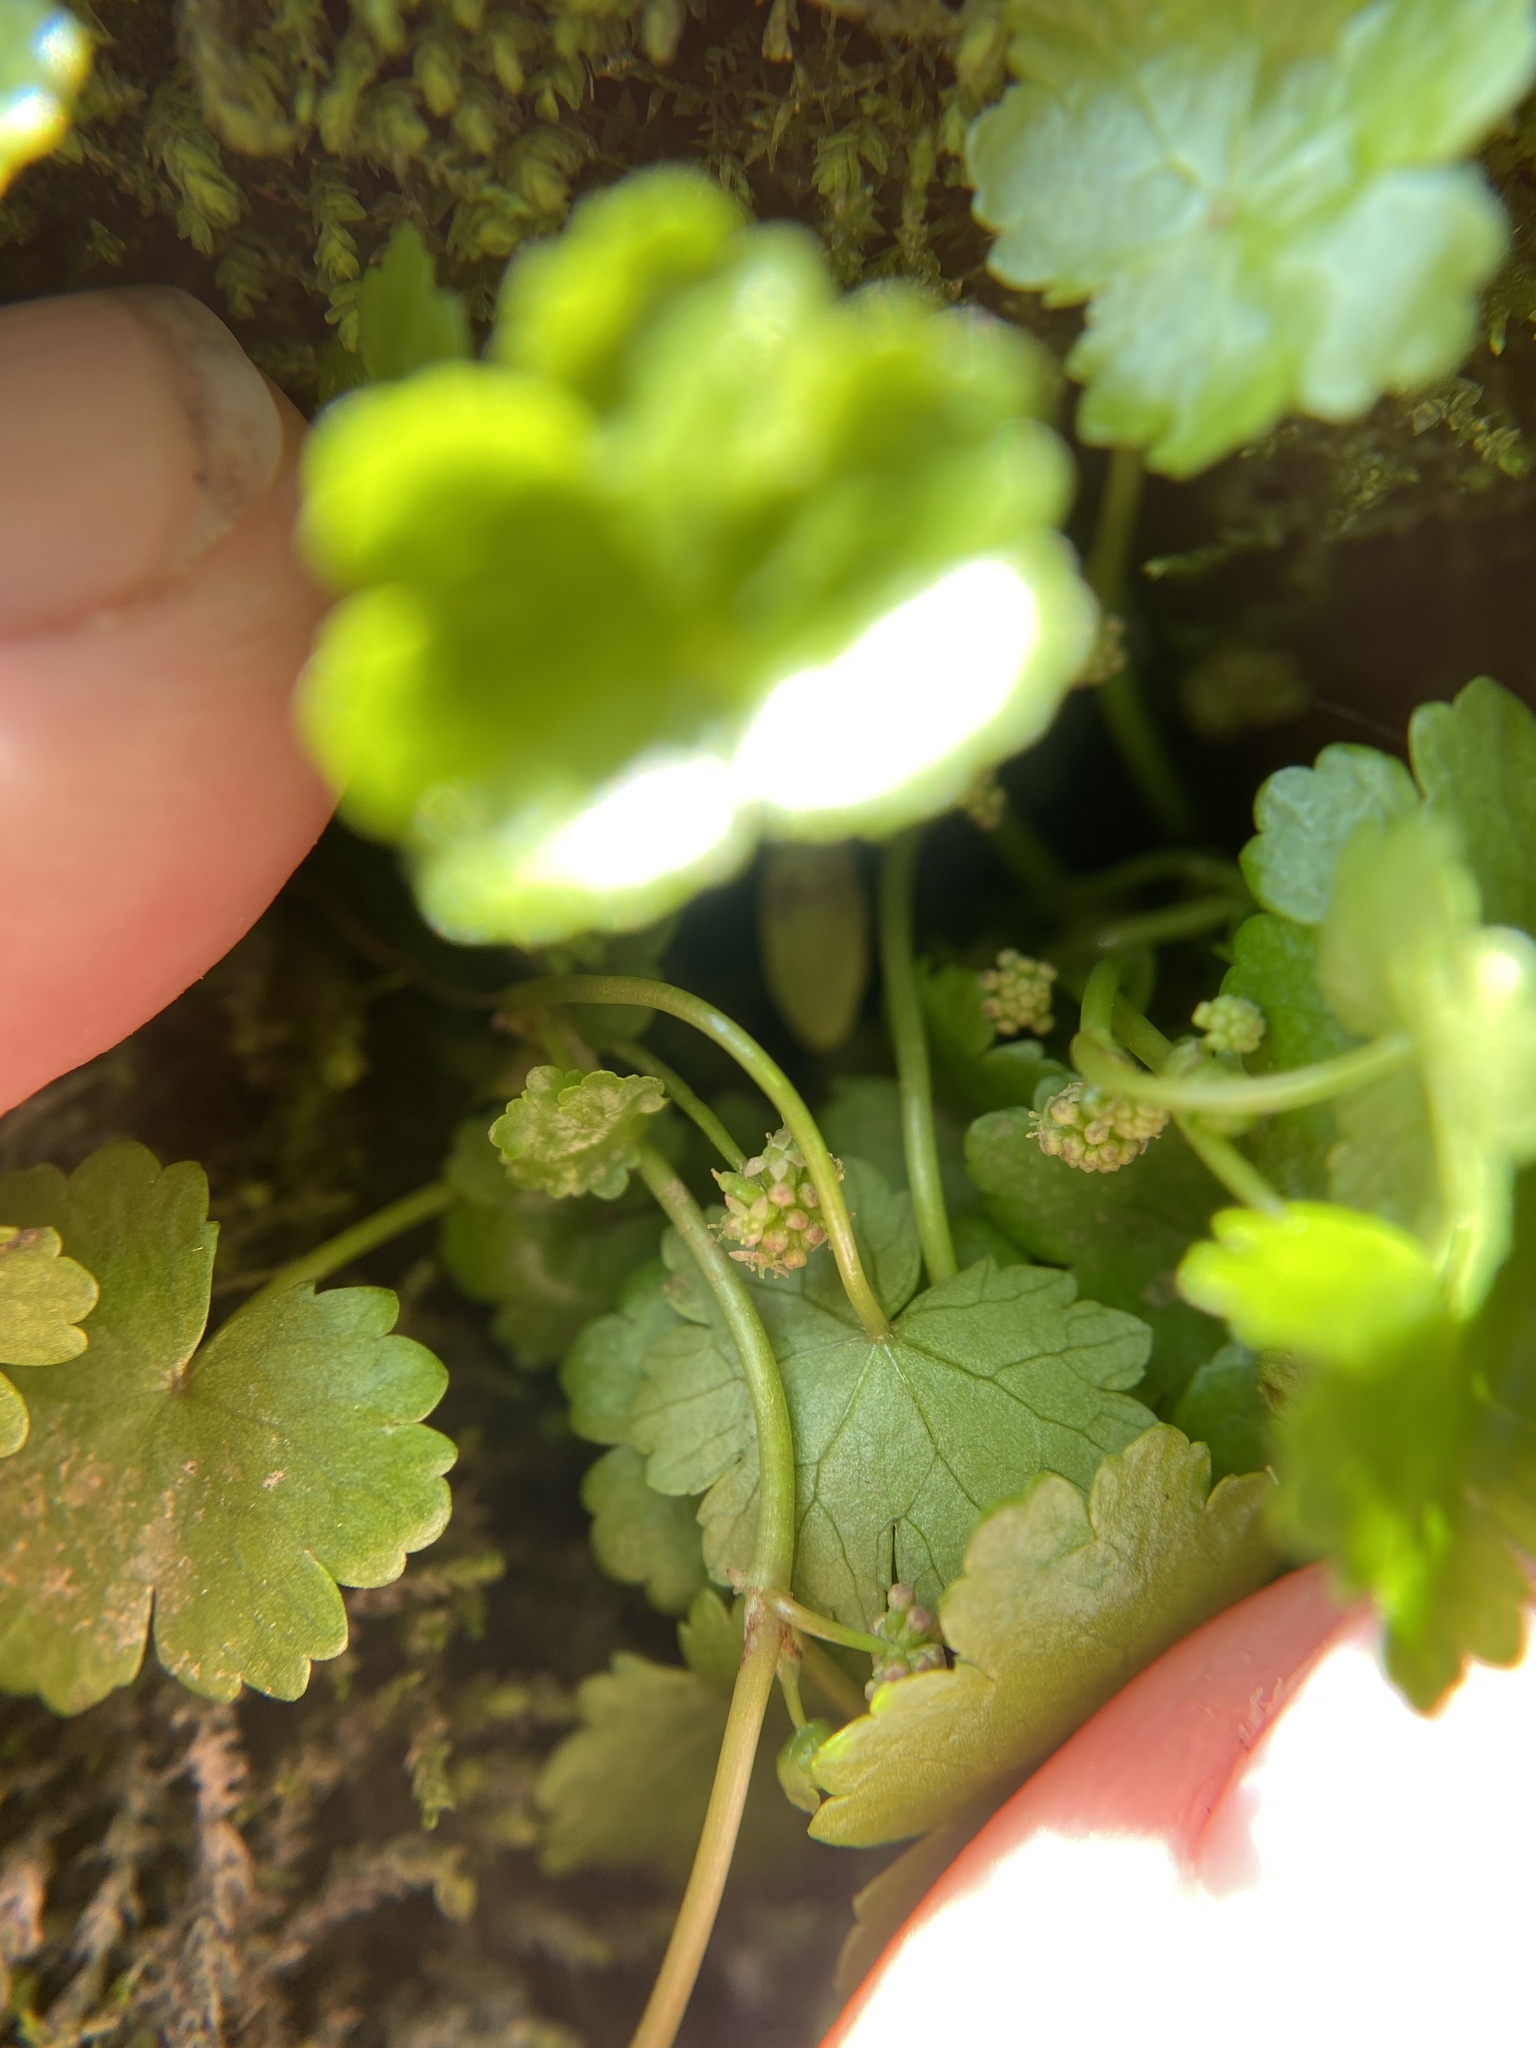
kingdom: Plantae
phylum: Tracheophyta
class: Magnoliopsida
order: Apiales
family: Araliaceae
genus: Hydrocotyle
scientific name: Hydrocotyle sibthorpioides
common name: Lawn marshpennywort
